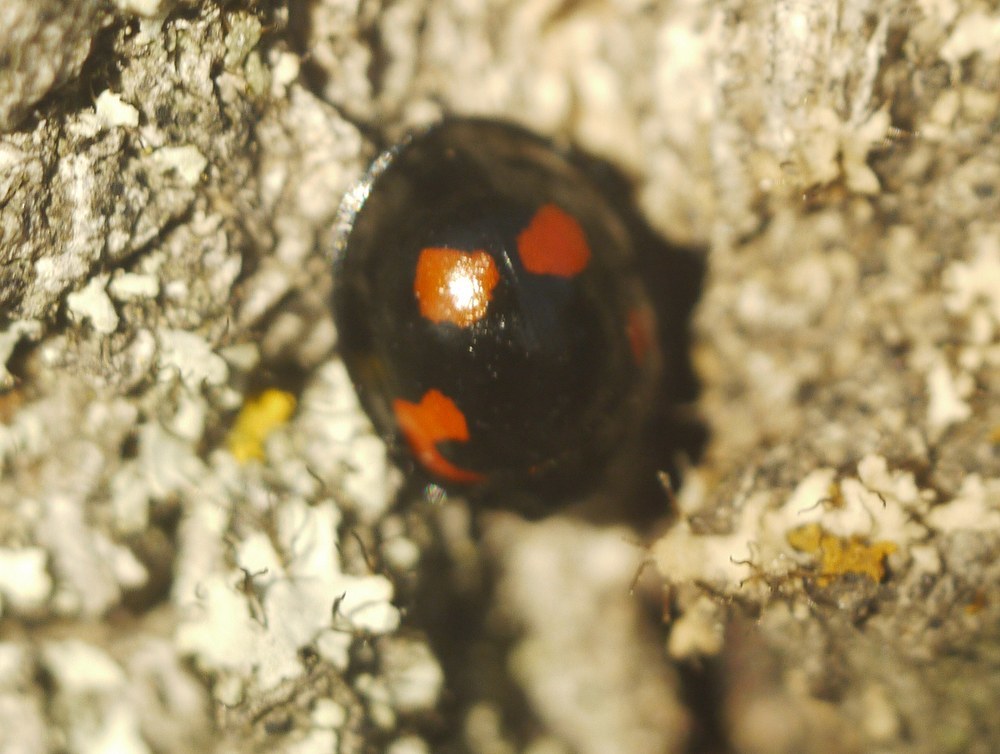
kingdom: Animalia
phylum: Arthropoda
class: Insecta
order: Coleoptera
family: Coccinellidae
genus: Brumus
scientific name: Brumus quadripustulatus
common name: Ladybird beetle
